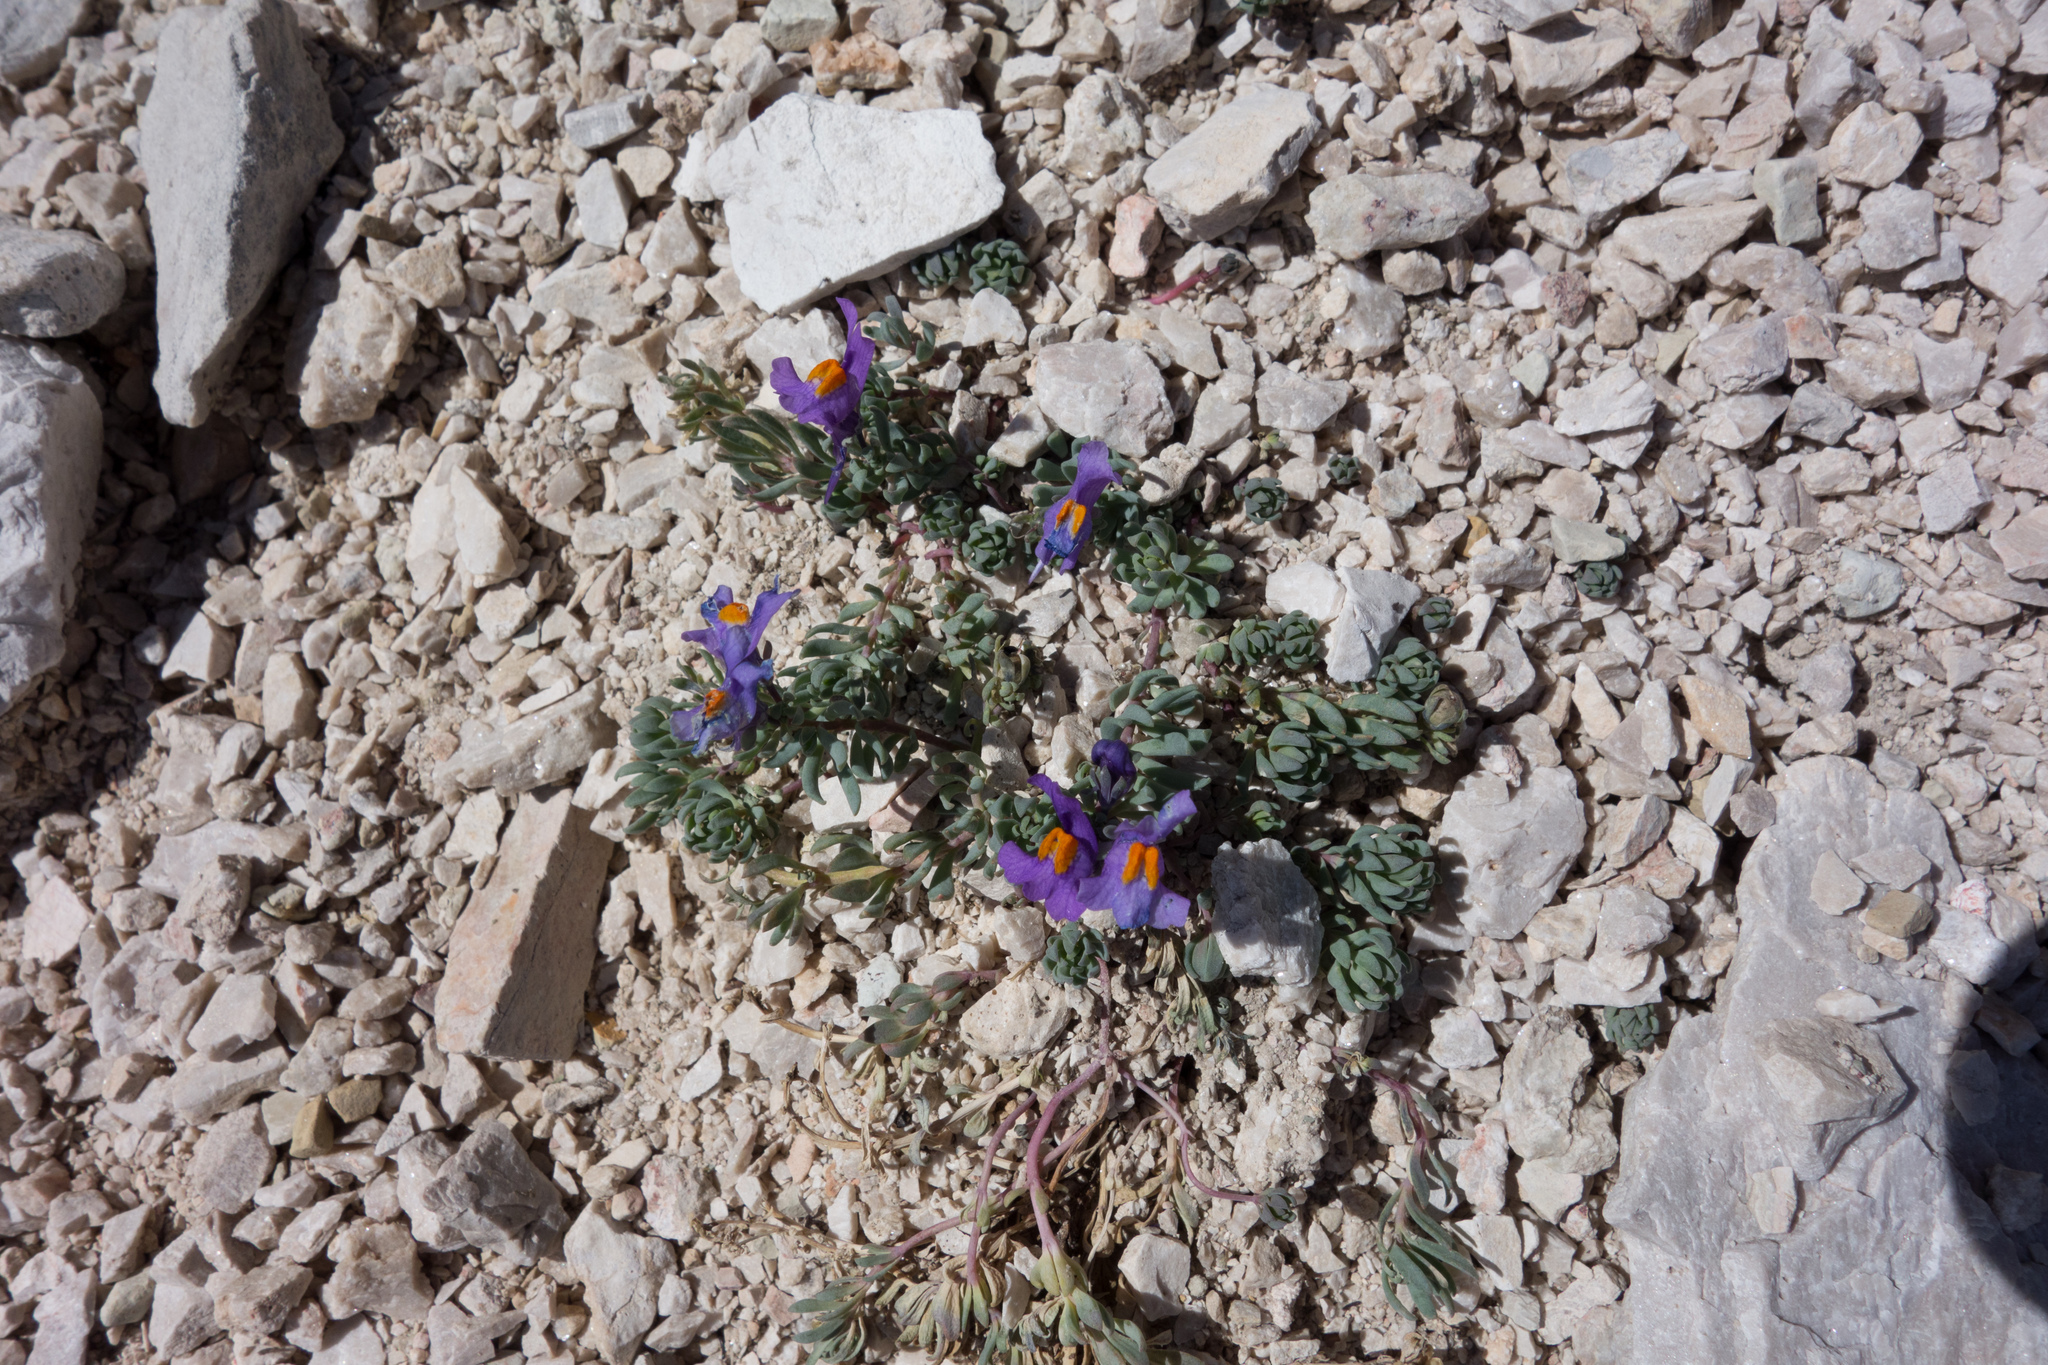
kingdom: Plantae
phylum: Tracheophyta
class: Magnoliopsida
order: Lamiales
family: Plantaginaceae
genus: Linaria
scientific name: Linaria alpina
